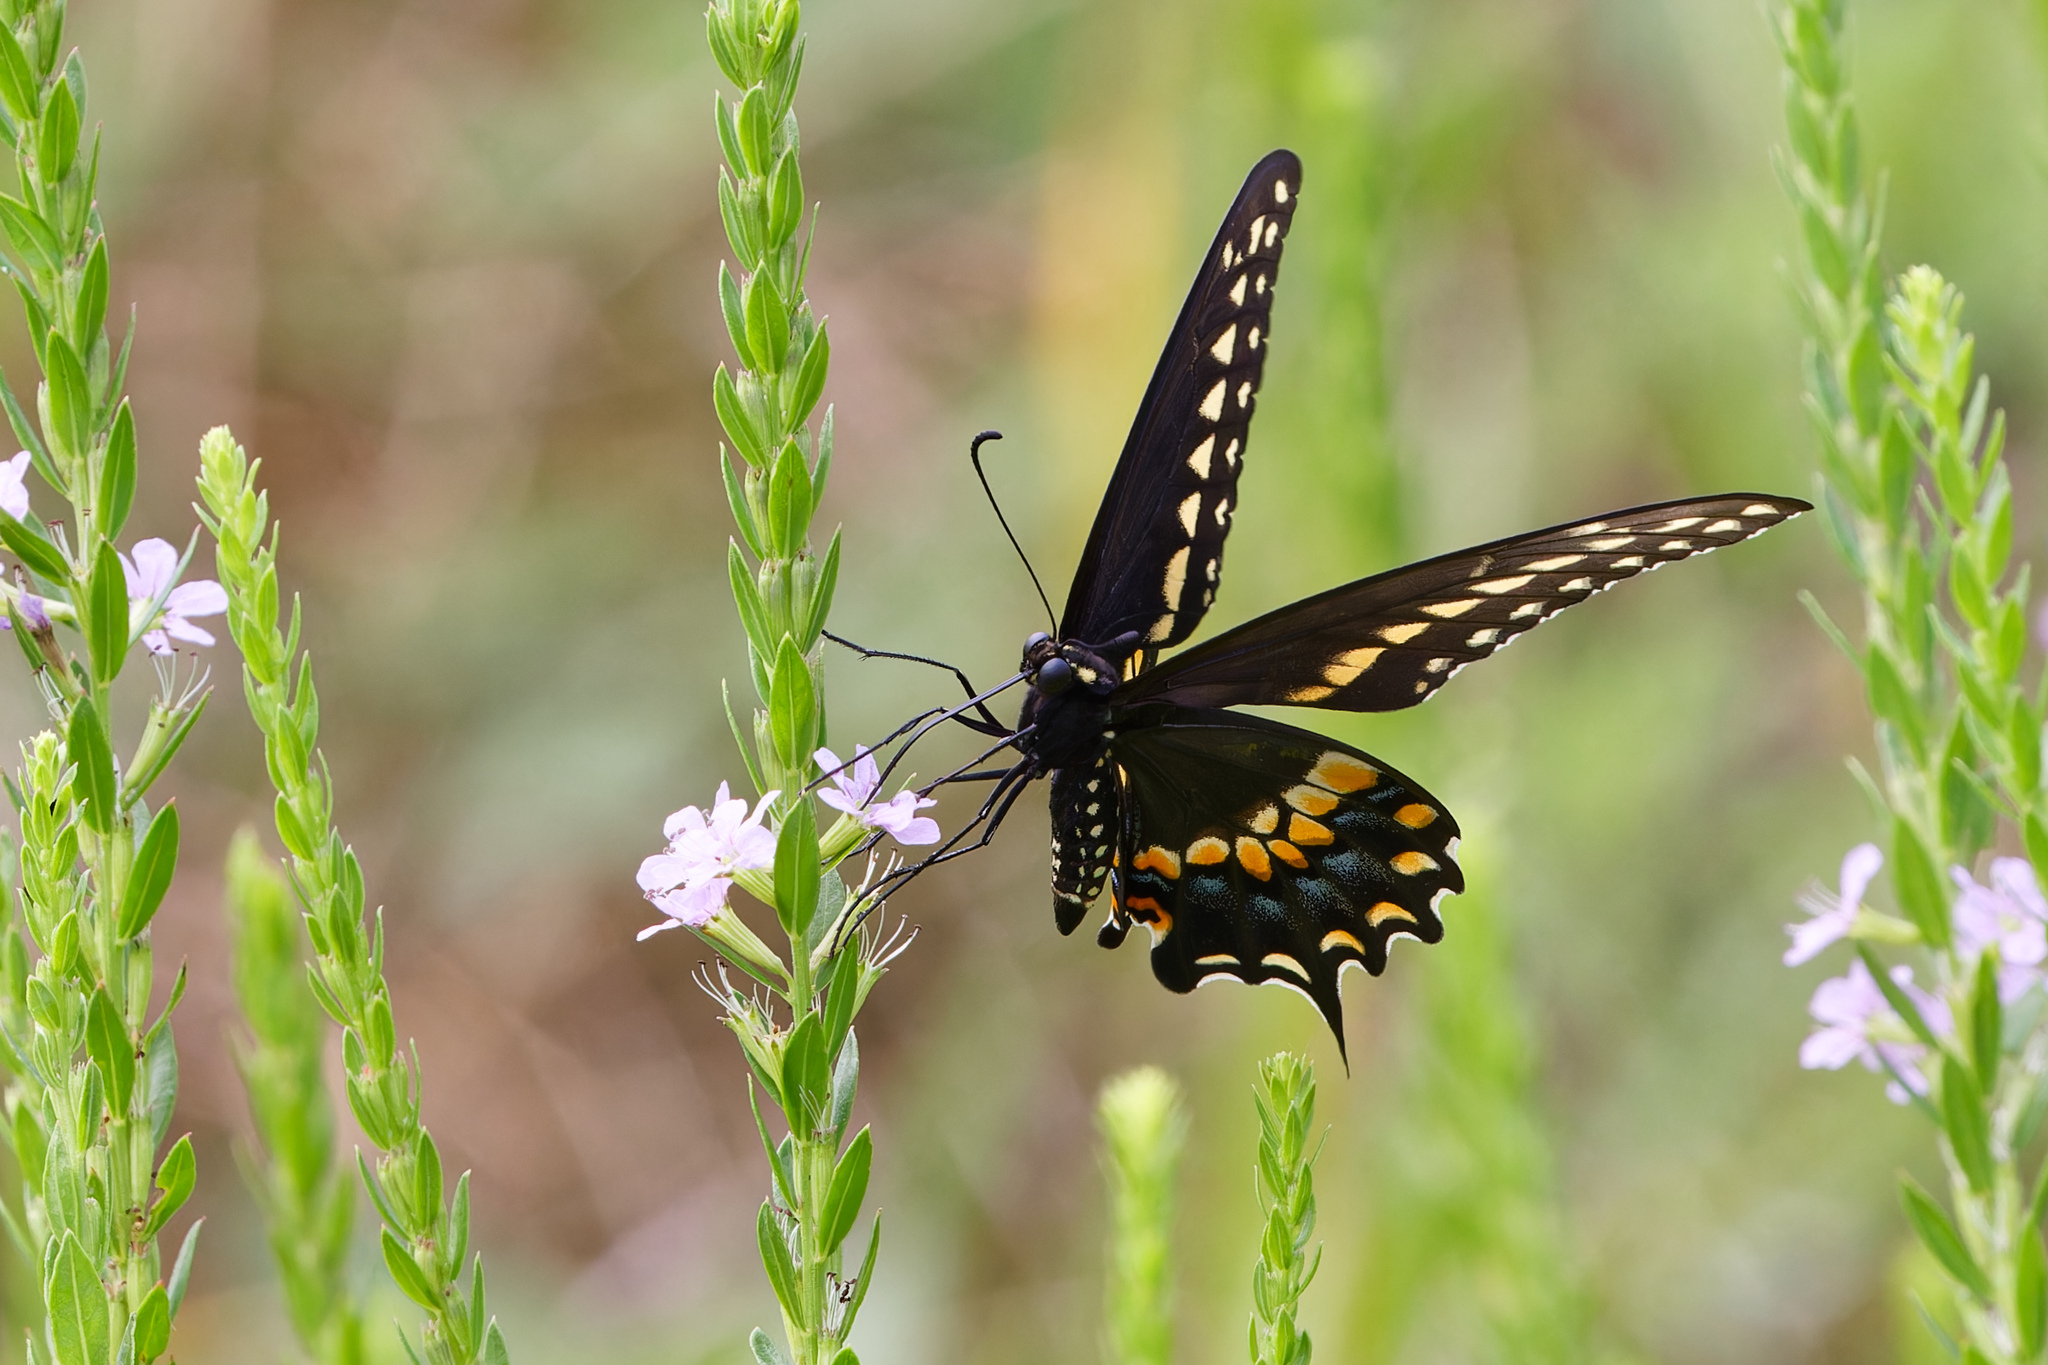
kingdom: Animalia
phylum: Arthropoda
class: Insecta
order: Lepidoptera
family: Papilionidae
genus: Papilio
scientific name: Papilio polyxenes
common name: Black swallowtail
